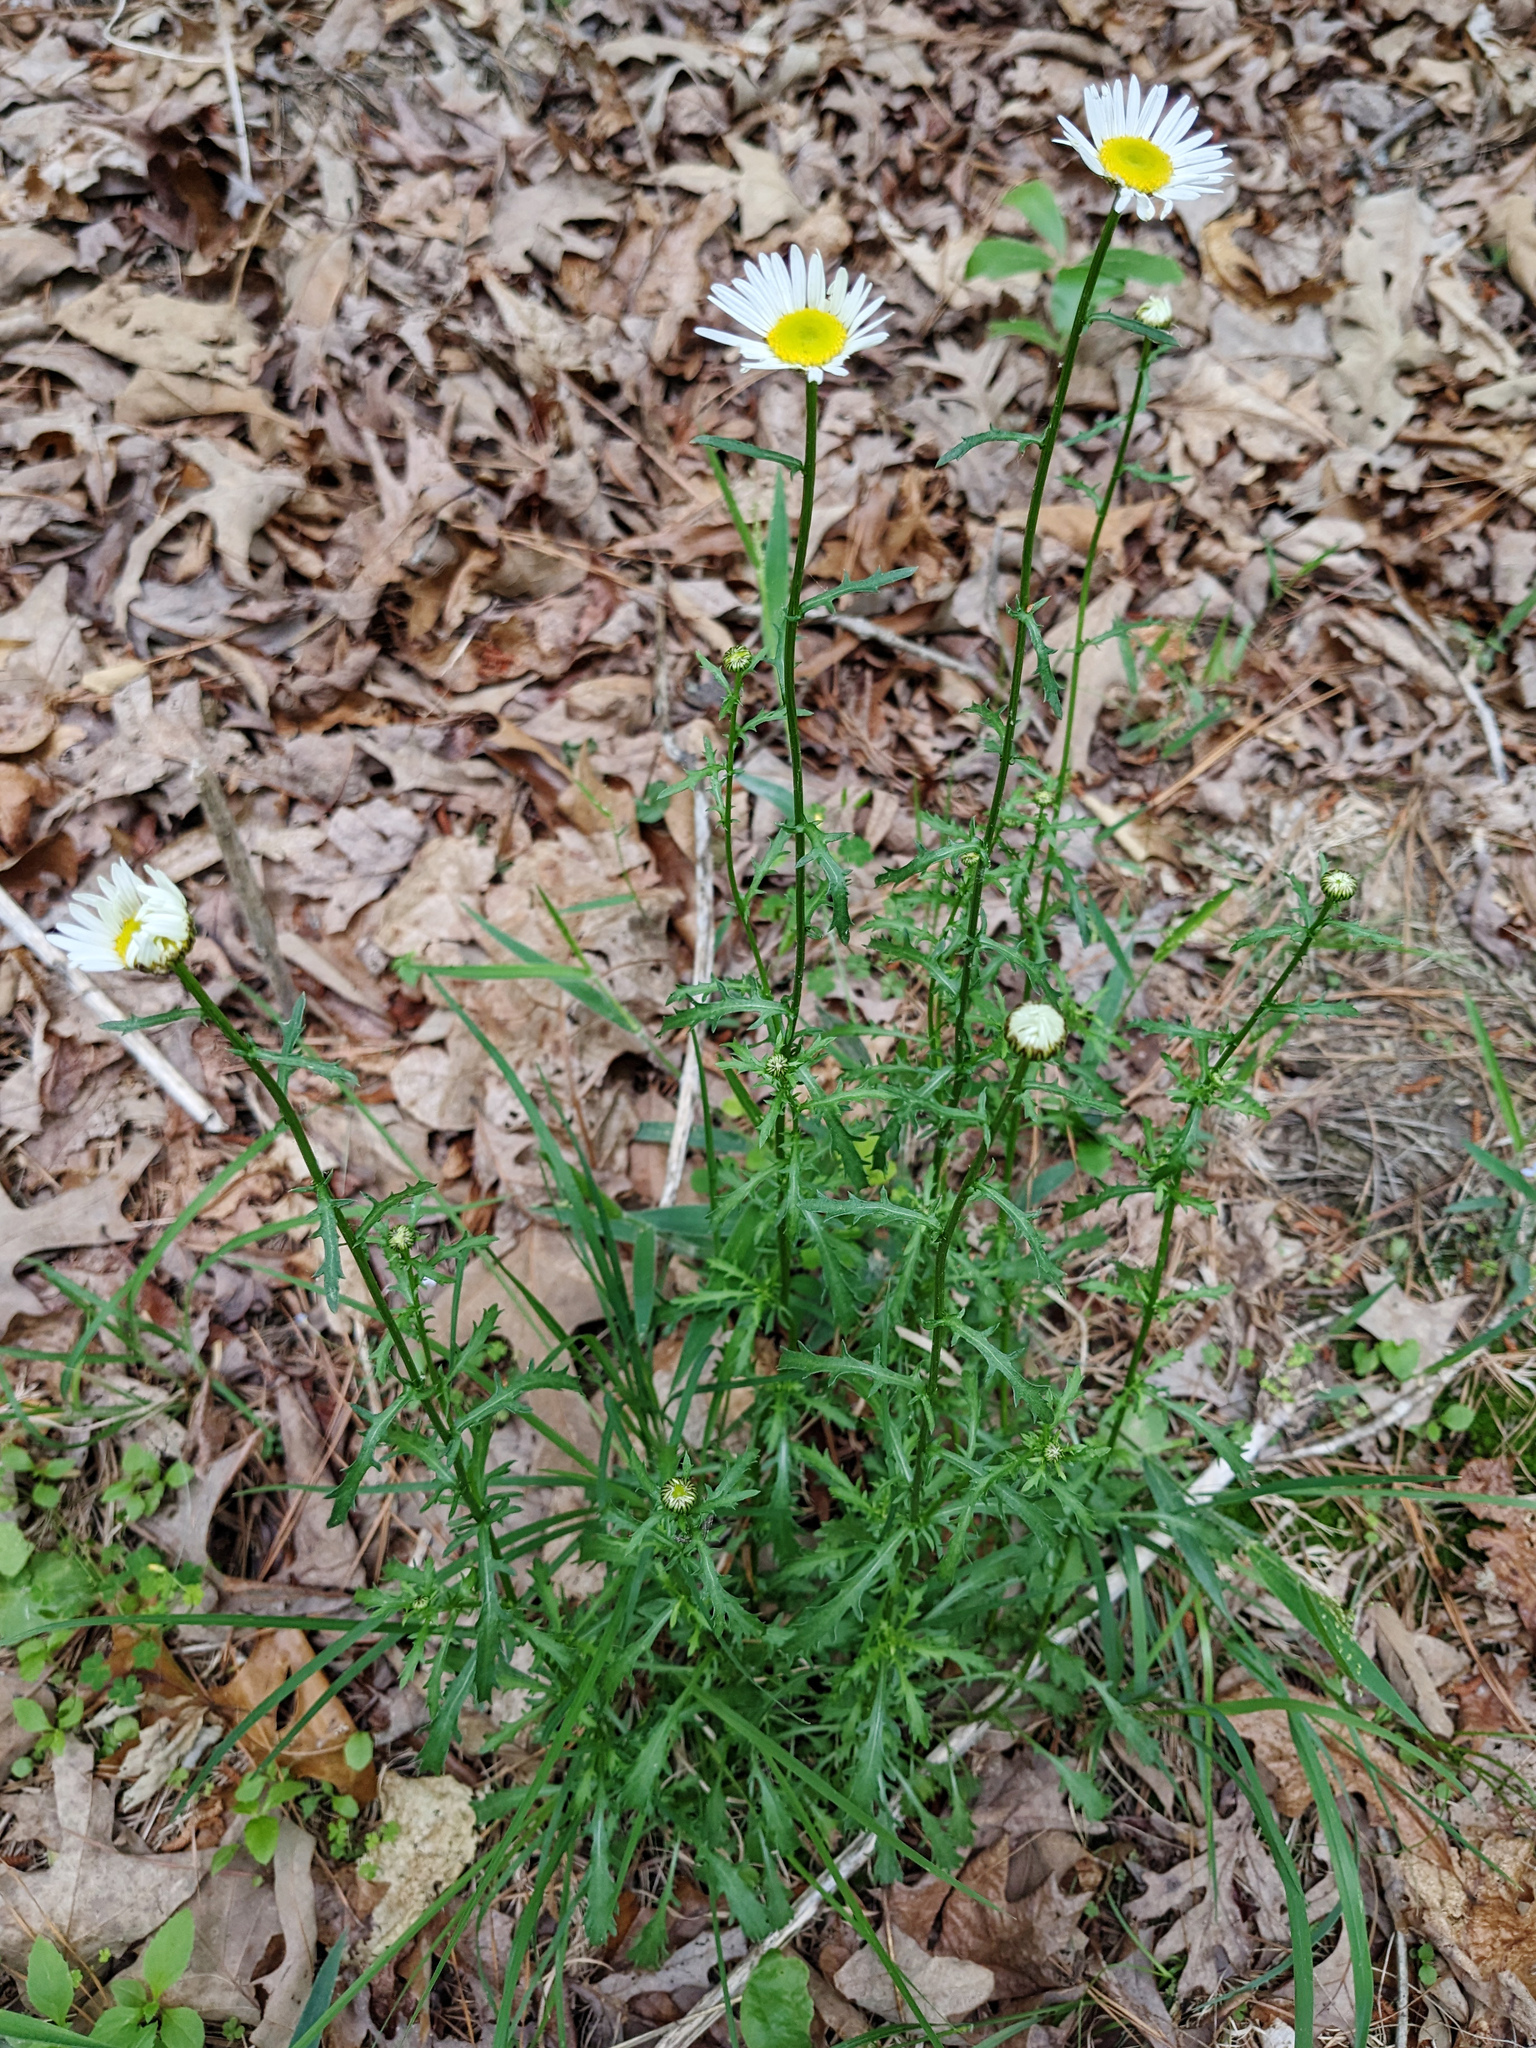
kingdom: Plantae
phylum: Tracheophyta
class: Magnoliopsida
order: Asterales
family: Asteraceae
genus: Leucanthemum
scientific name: Leucanthemum vulgare
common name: Oxeye daisy
